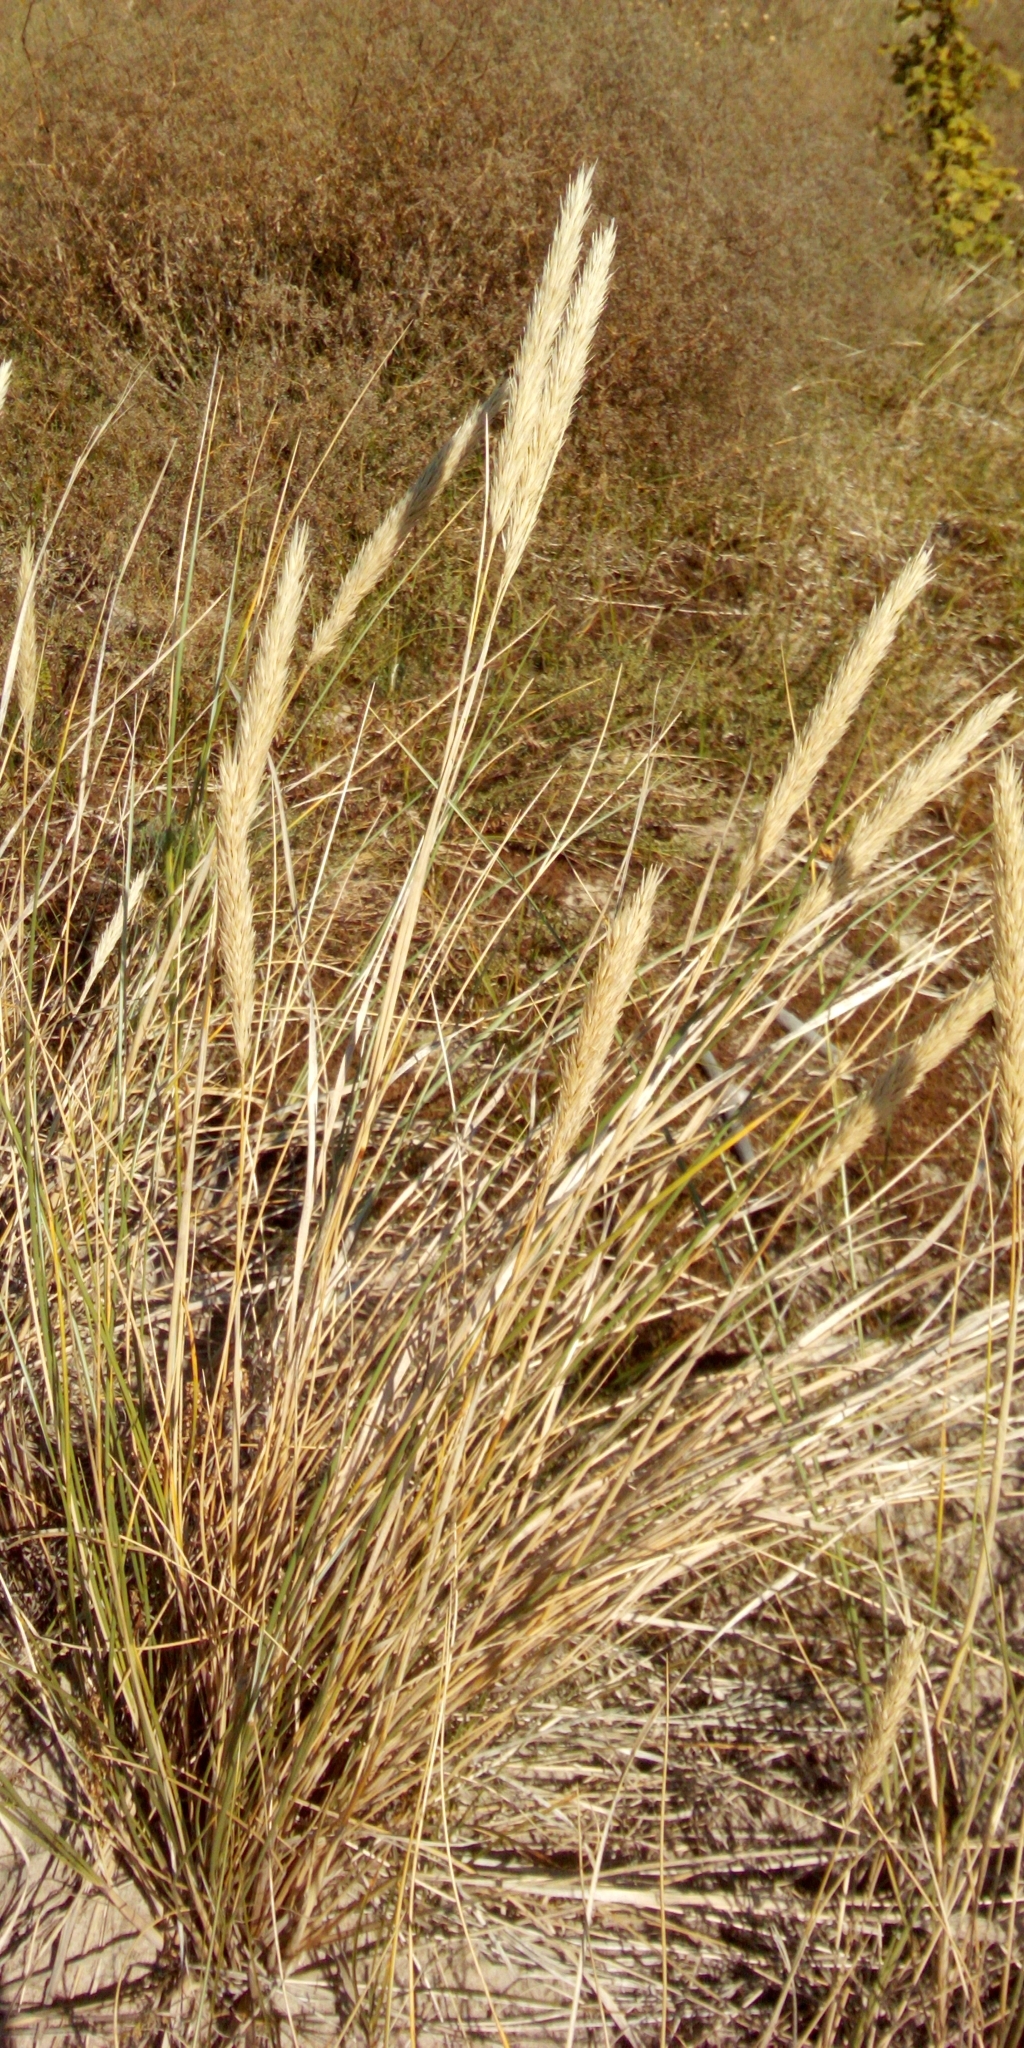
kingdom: Plantae
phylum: Tracheophyta
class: Liliopsida
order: Poales
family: Poaceae
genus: Calamagrostis
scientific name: Calamagrostis arenaria
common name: European beachgrass
